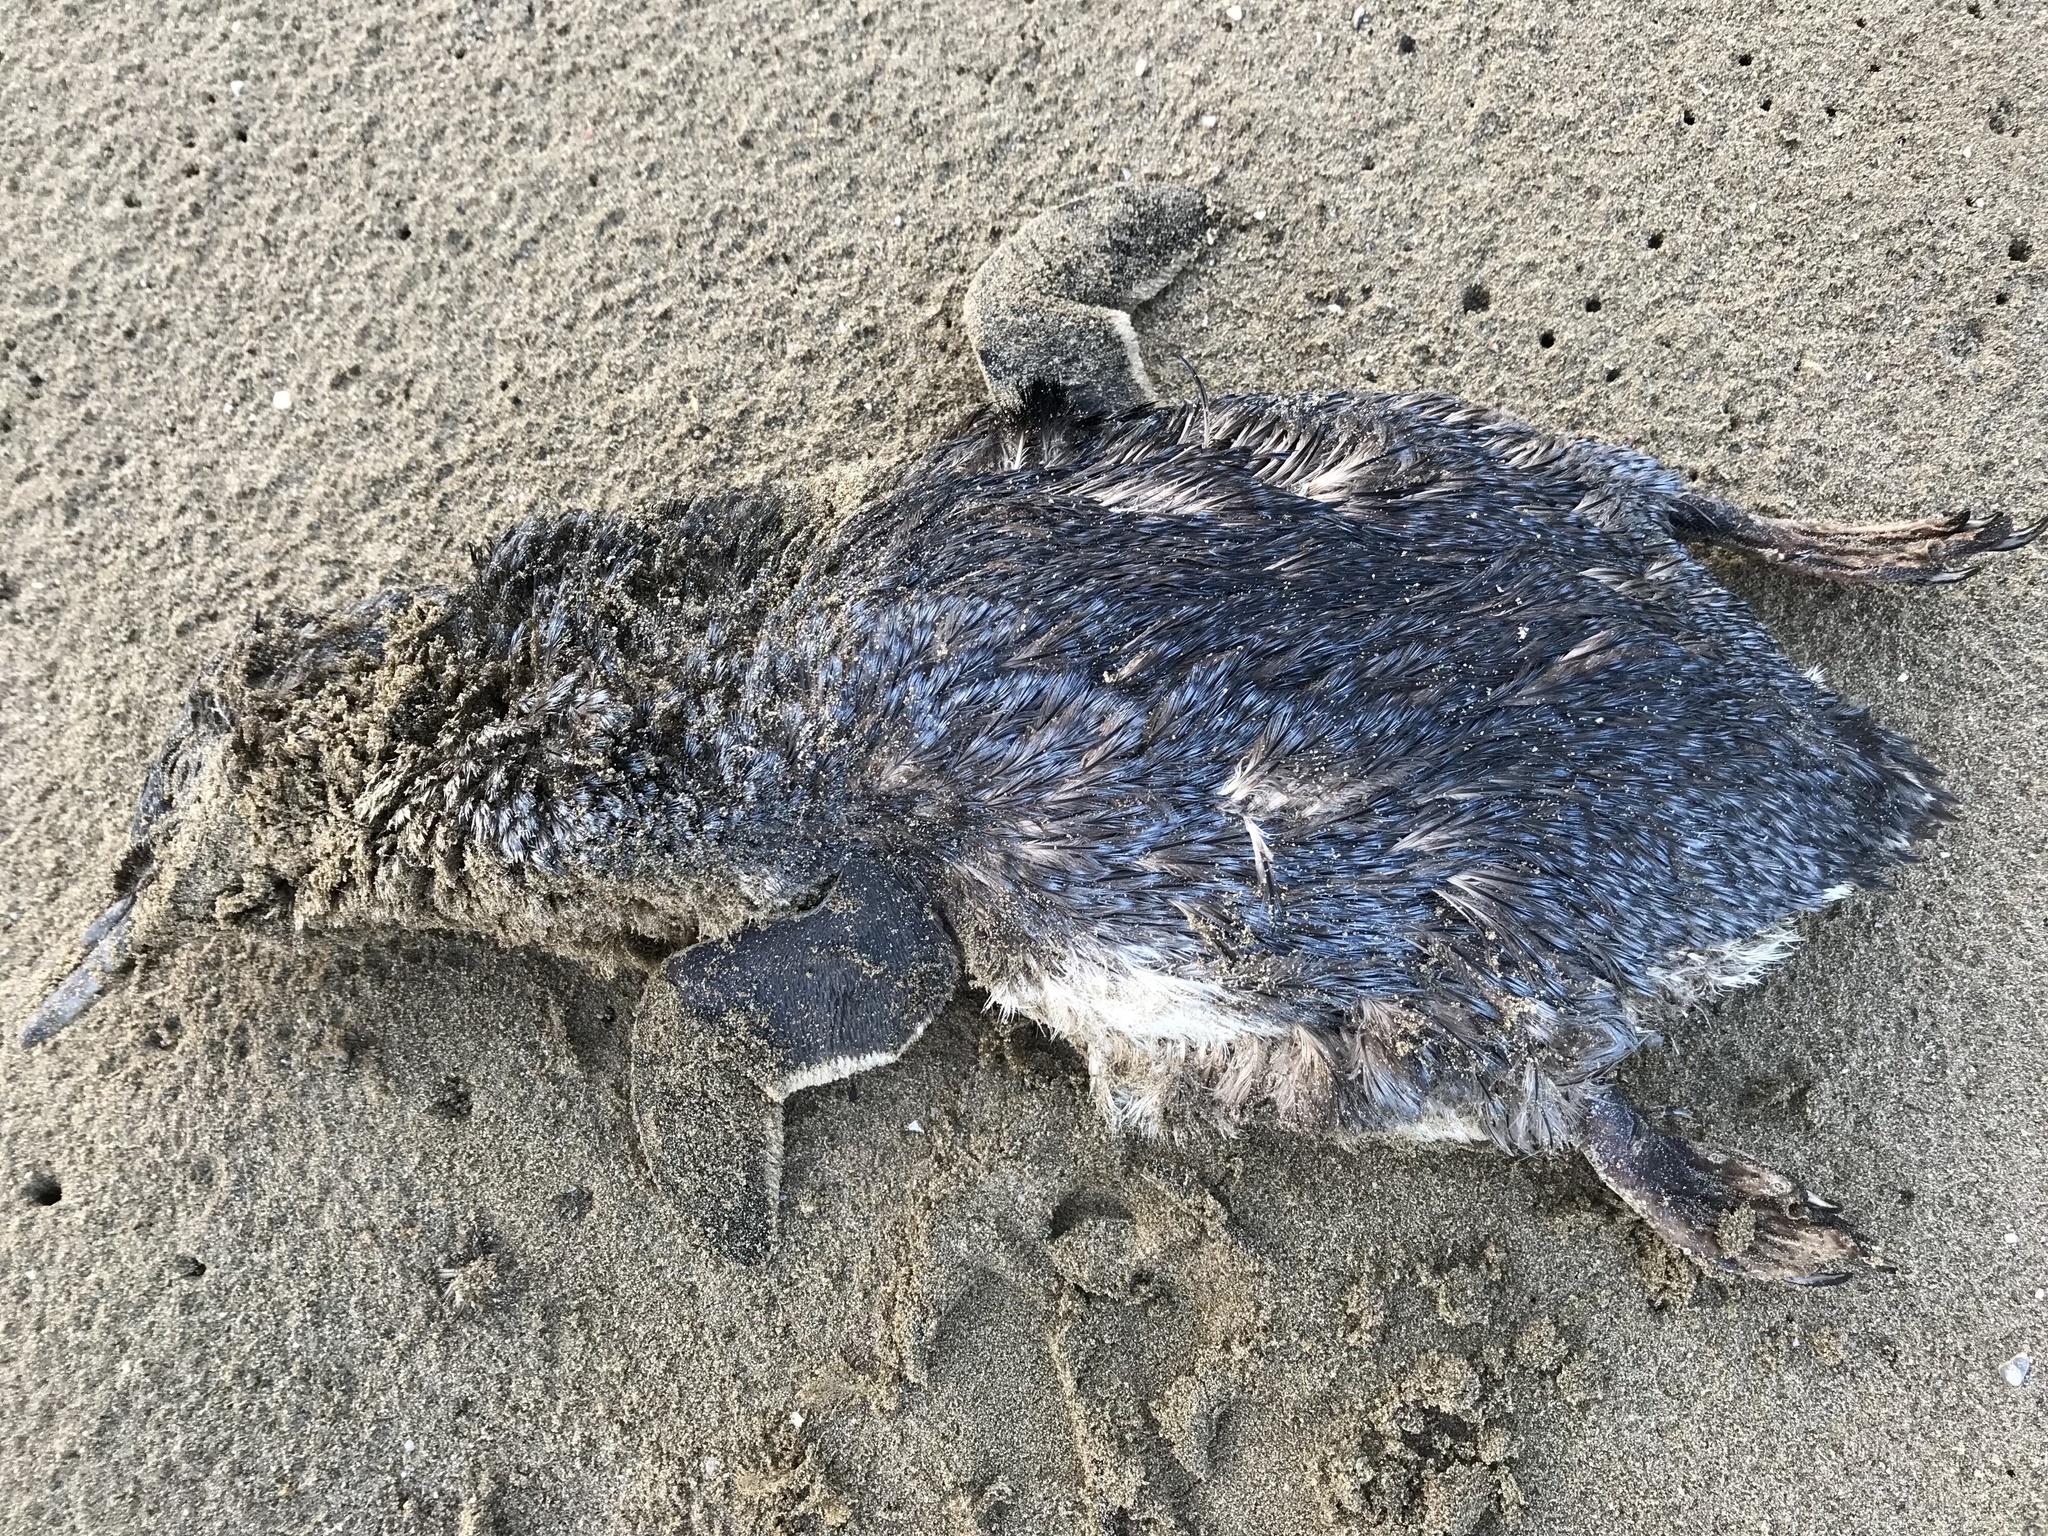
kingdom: Animalia
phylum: Chordata
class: Aves
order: Sphenisciformes
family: Spheniscidae
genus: Eudyptula
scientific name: Eudyptula minor
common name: Little penguin
